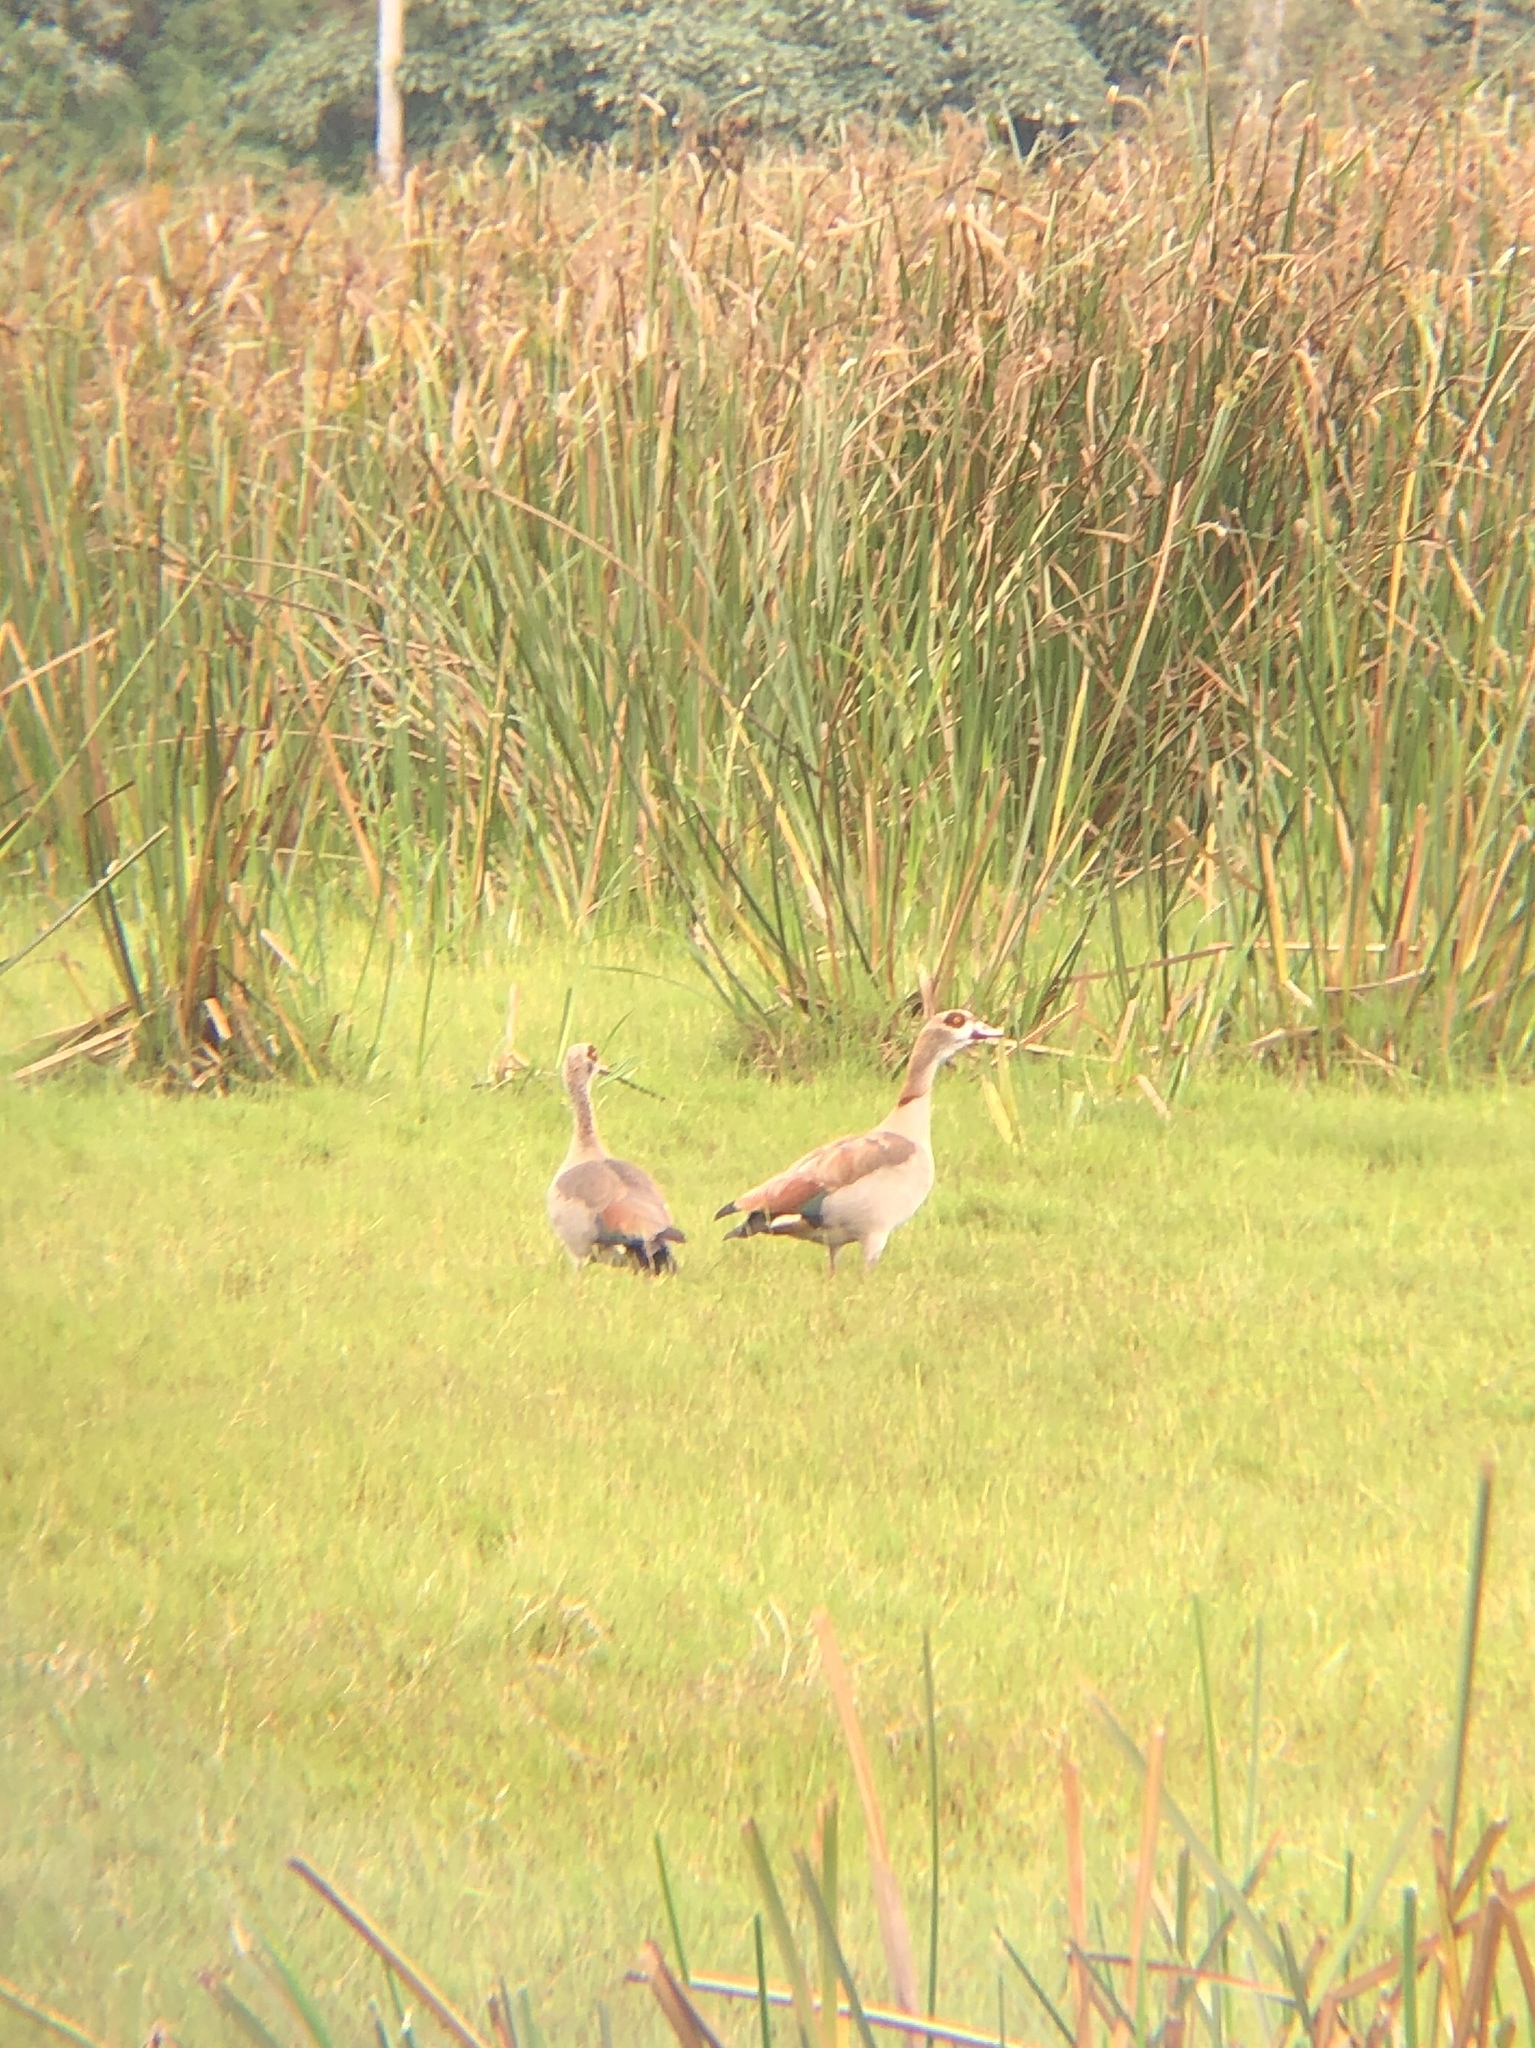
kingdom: Animalia
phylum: Chordata
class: Aves
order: Anseriformes
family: Anatidae
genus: Alopochen
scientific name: Alopochen aegyptiaca
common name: Egyptian goose
